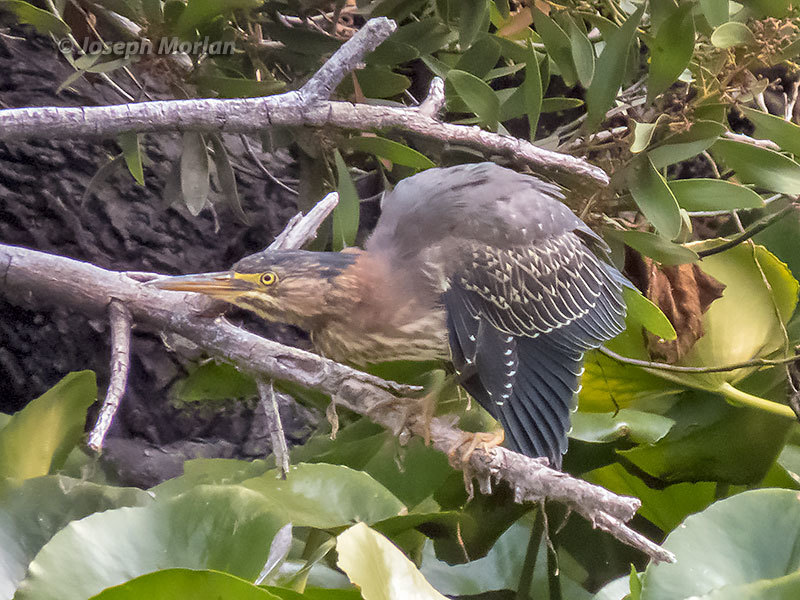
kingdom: Animalia
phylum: Chordata
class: Aves
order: Pelecaniformes
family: Ardeidae
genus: Butorides
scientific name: Butorides virescens
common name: Green heron
